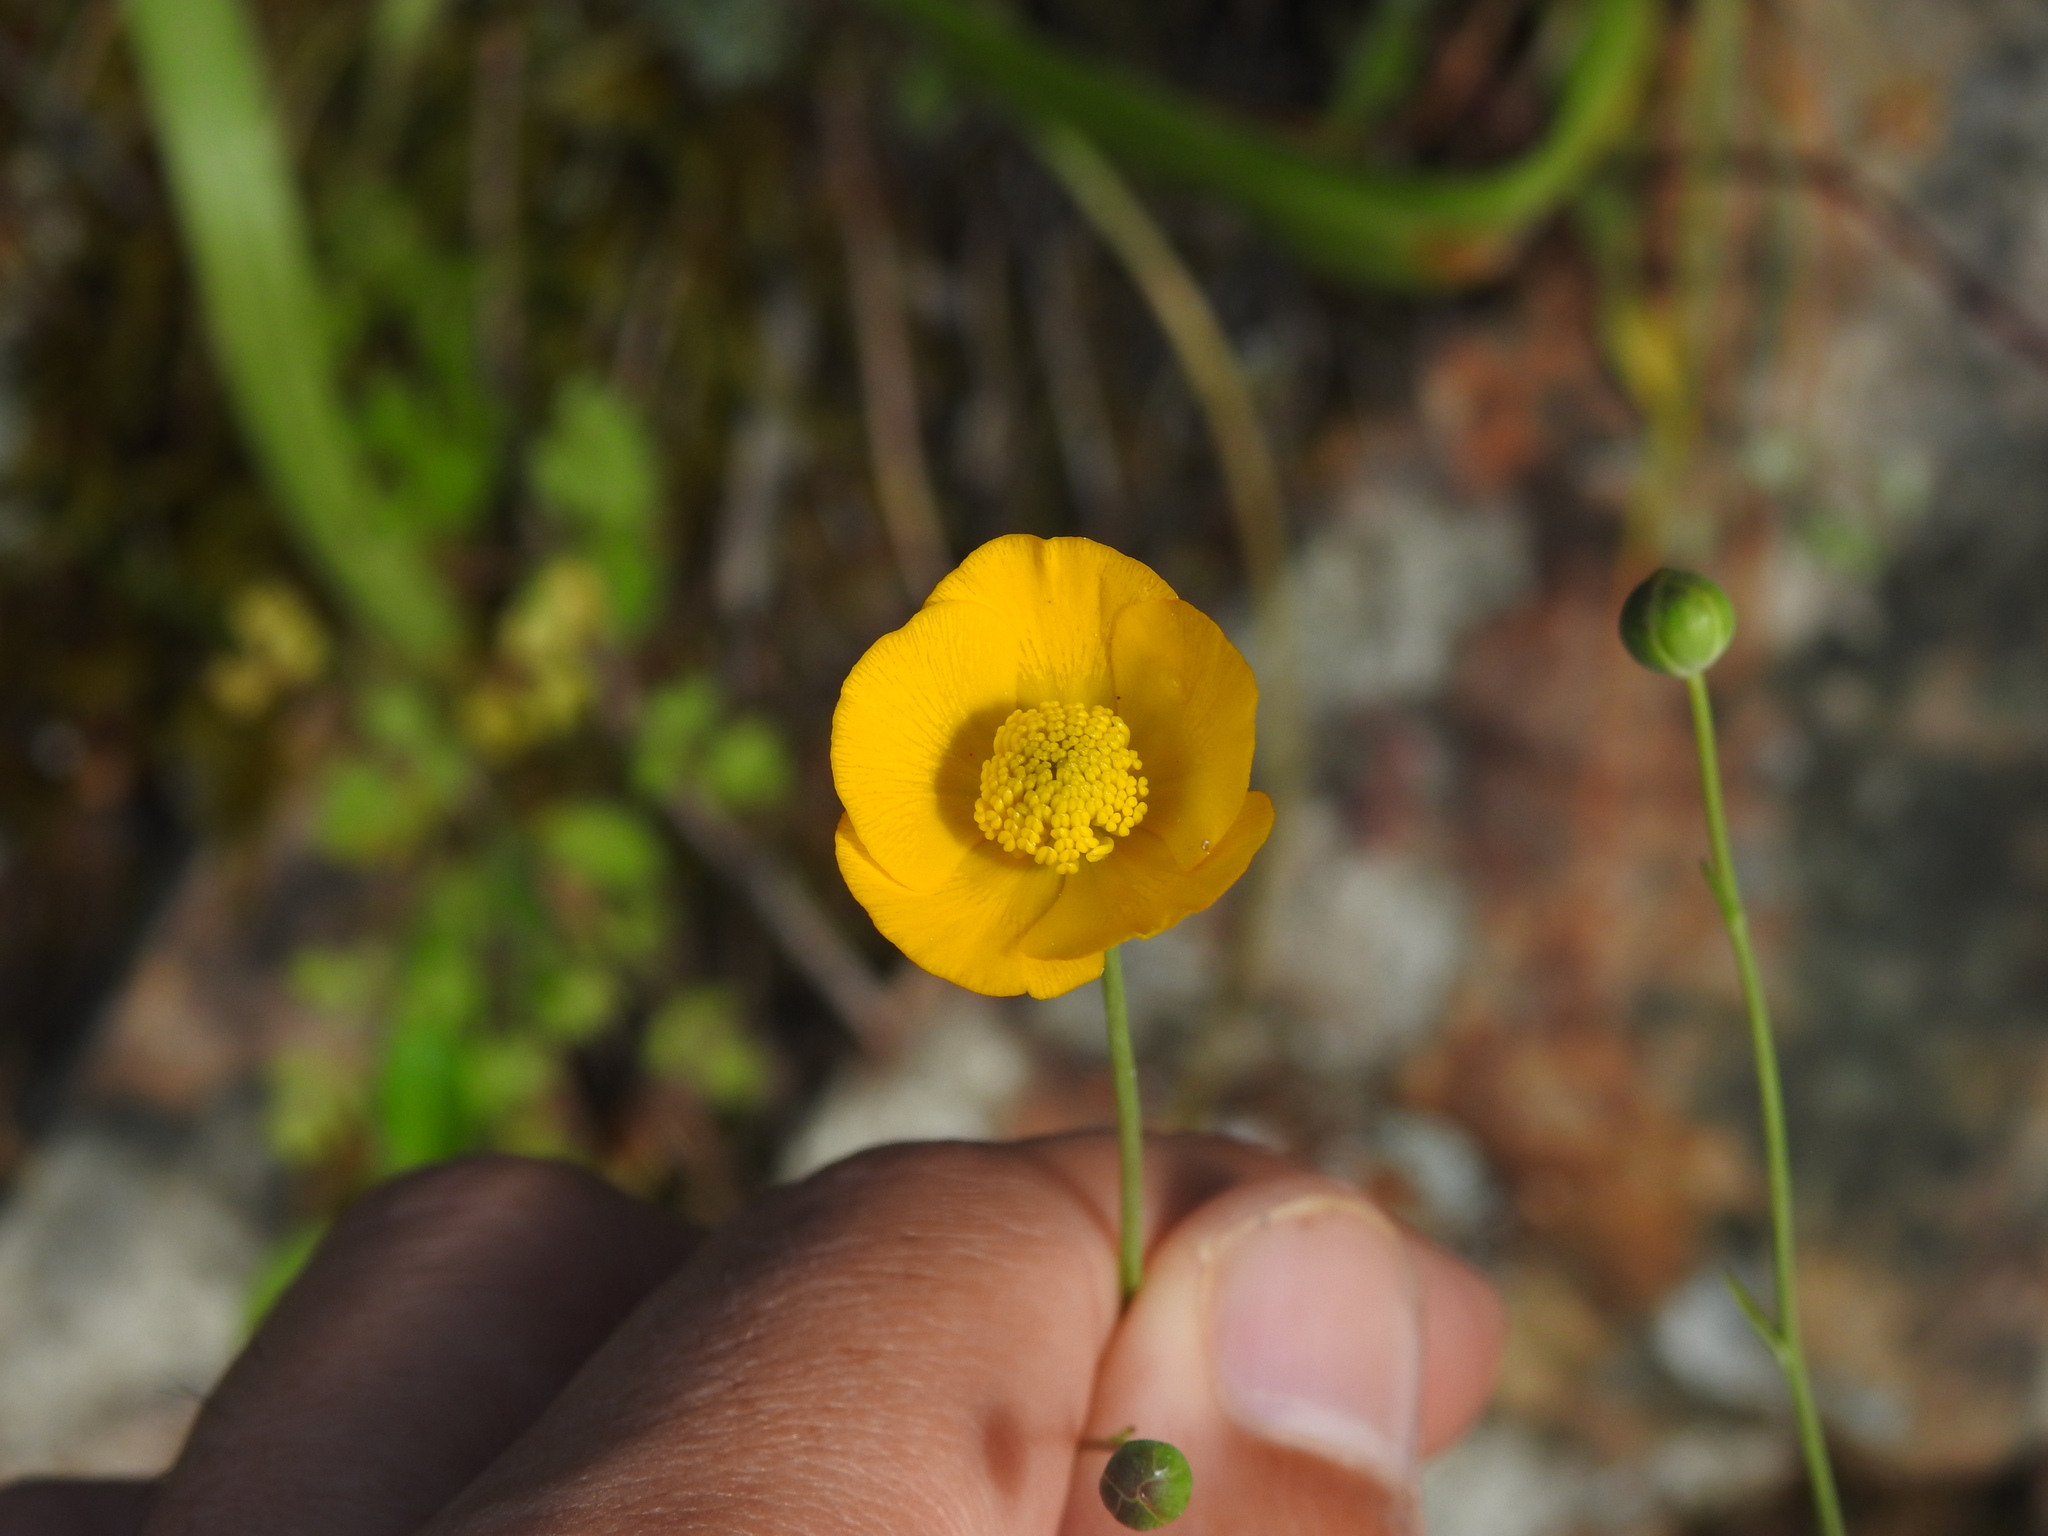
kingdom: Plantae
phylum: Tracheophyta
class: Magnoliopsida
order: Ranunculales
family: Ranunculaceae
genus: Ranunculus
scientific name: Ranunculus bupleuroides
